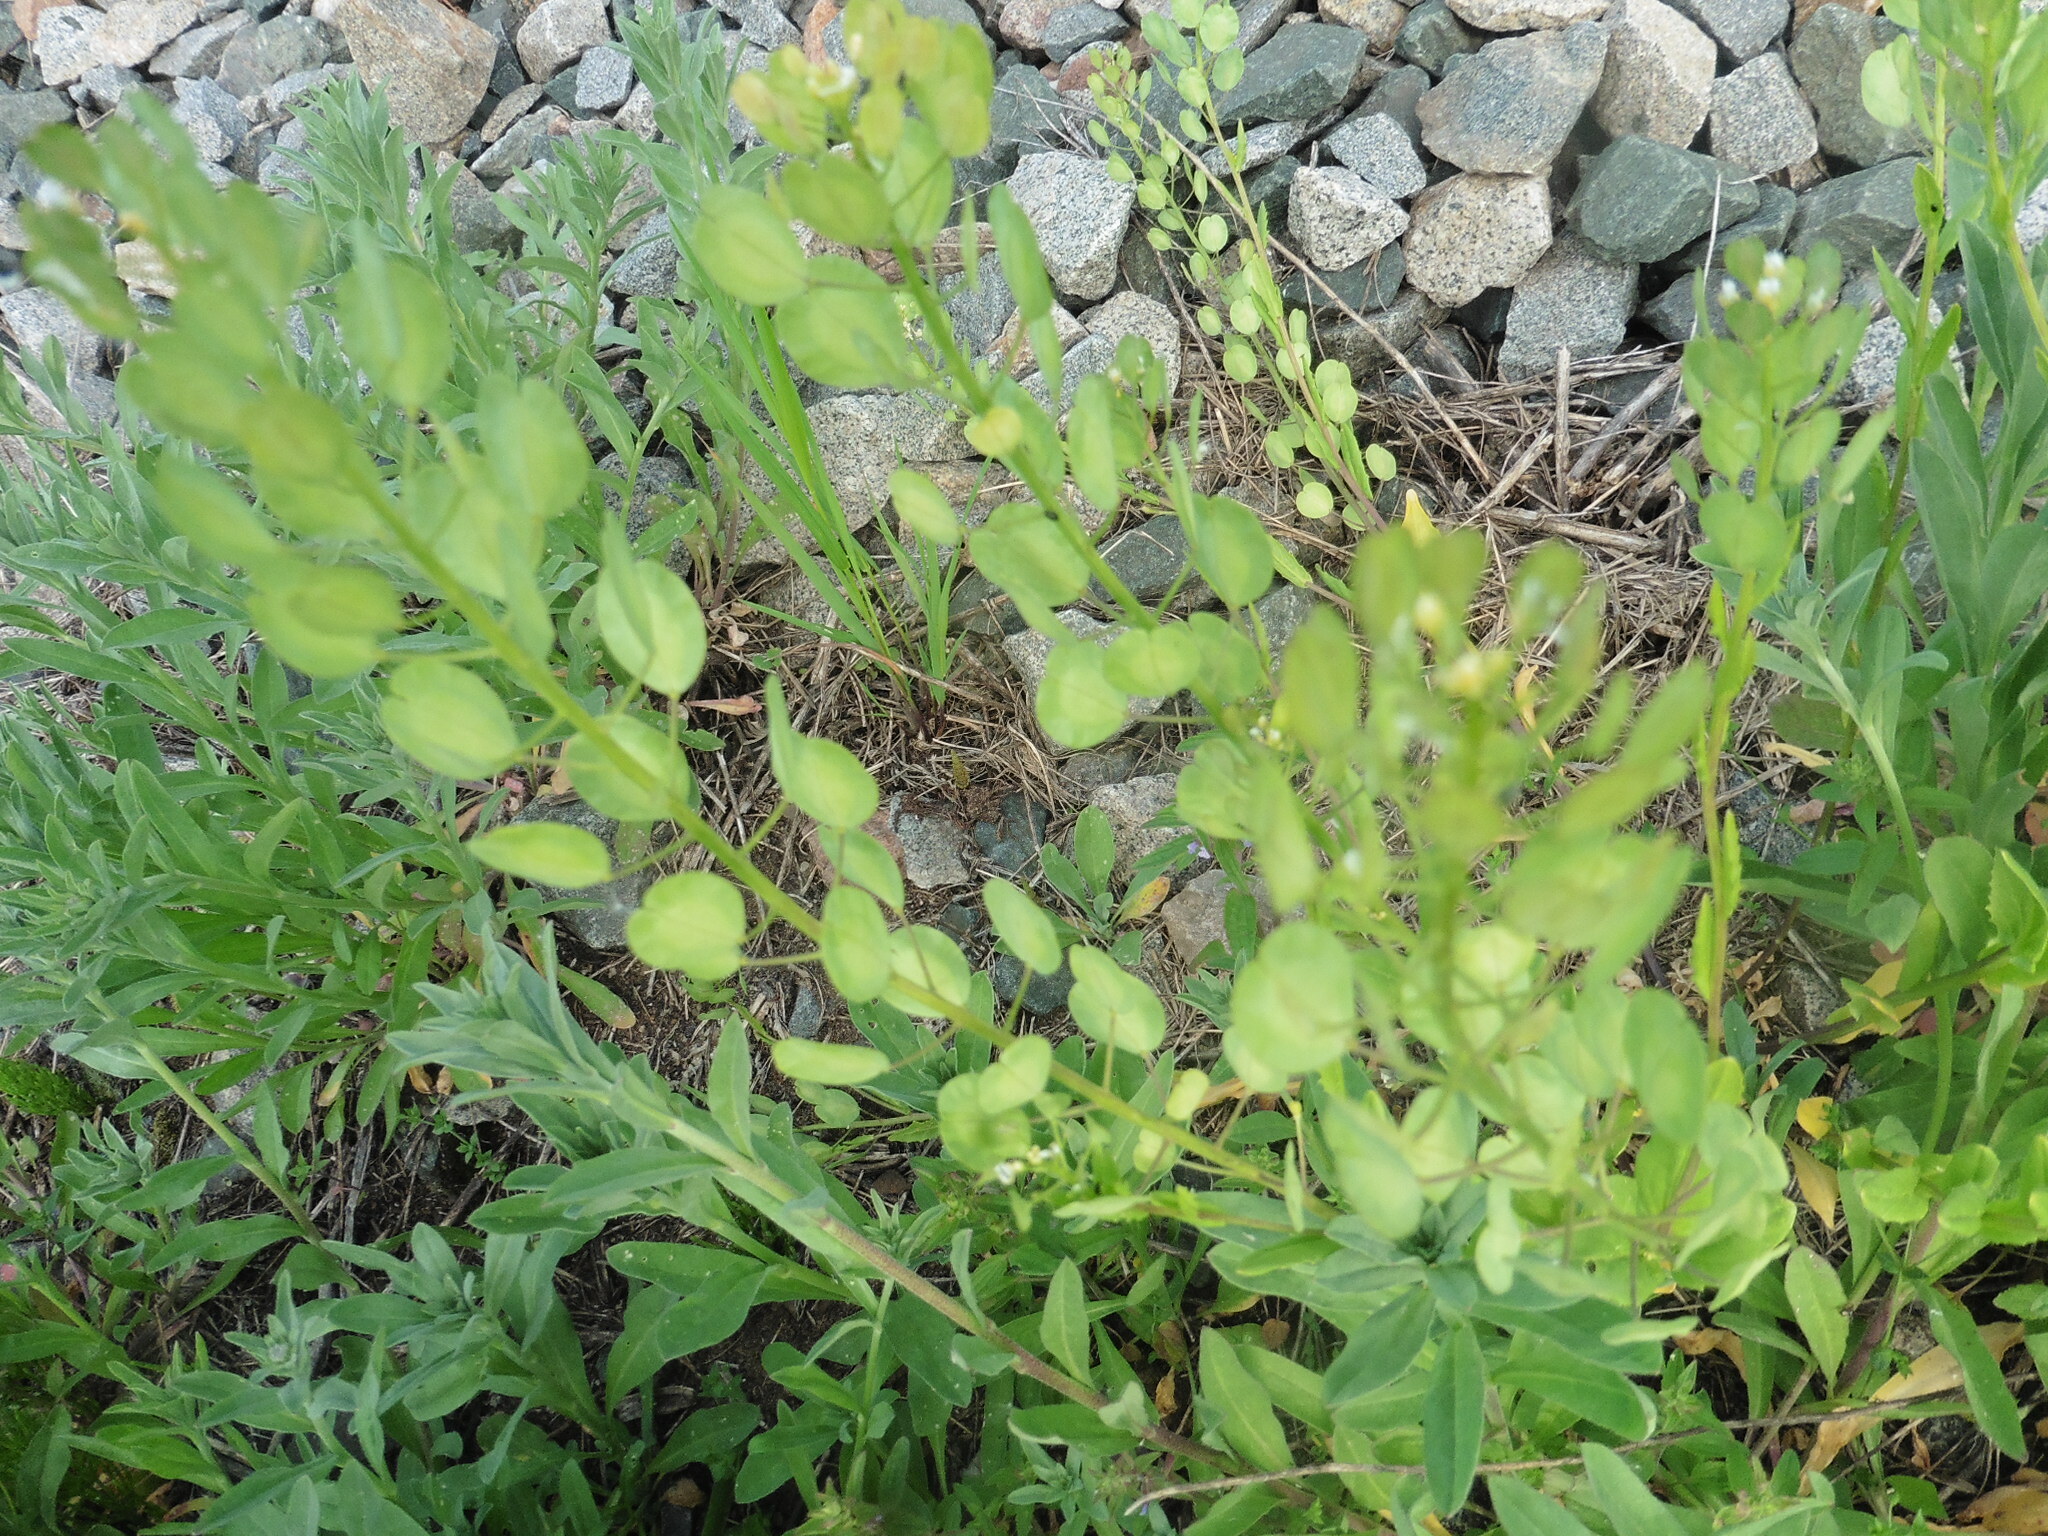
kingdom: Plantae
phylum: Tracheophyta
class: Magnoliopsida
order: Brassicales
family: Brassicaceae
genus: Thlaspi
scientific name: Thlaspi arvense
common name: Field pennycress
